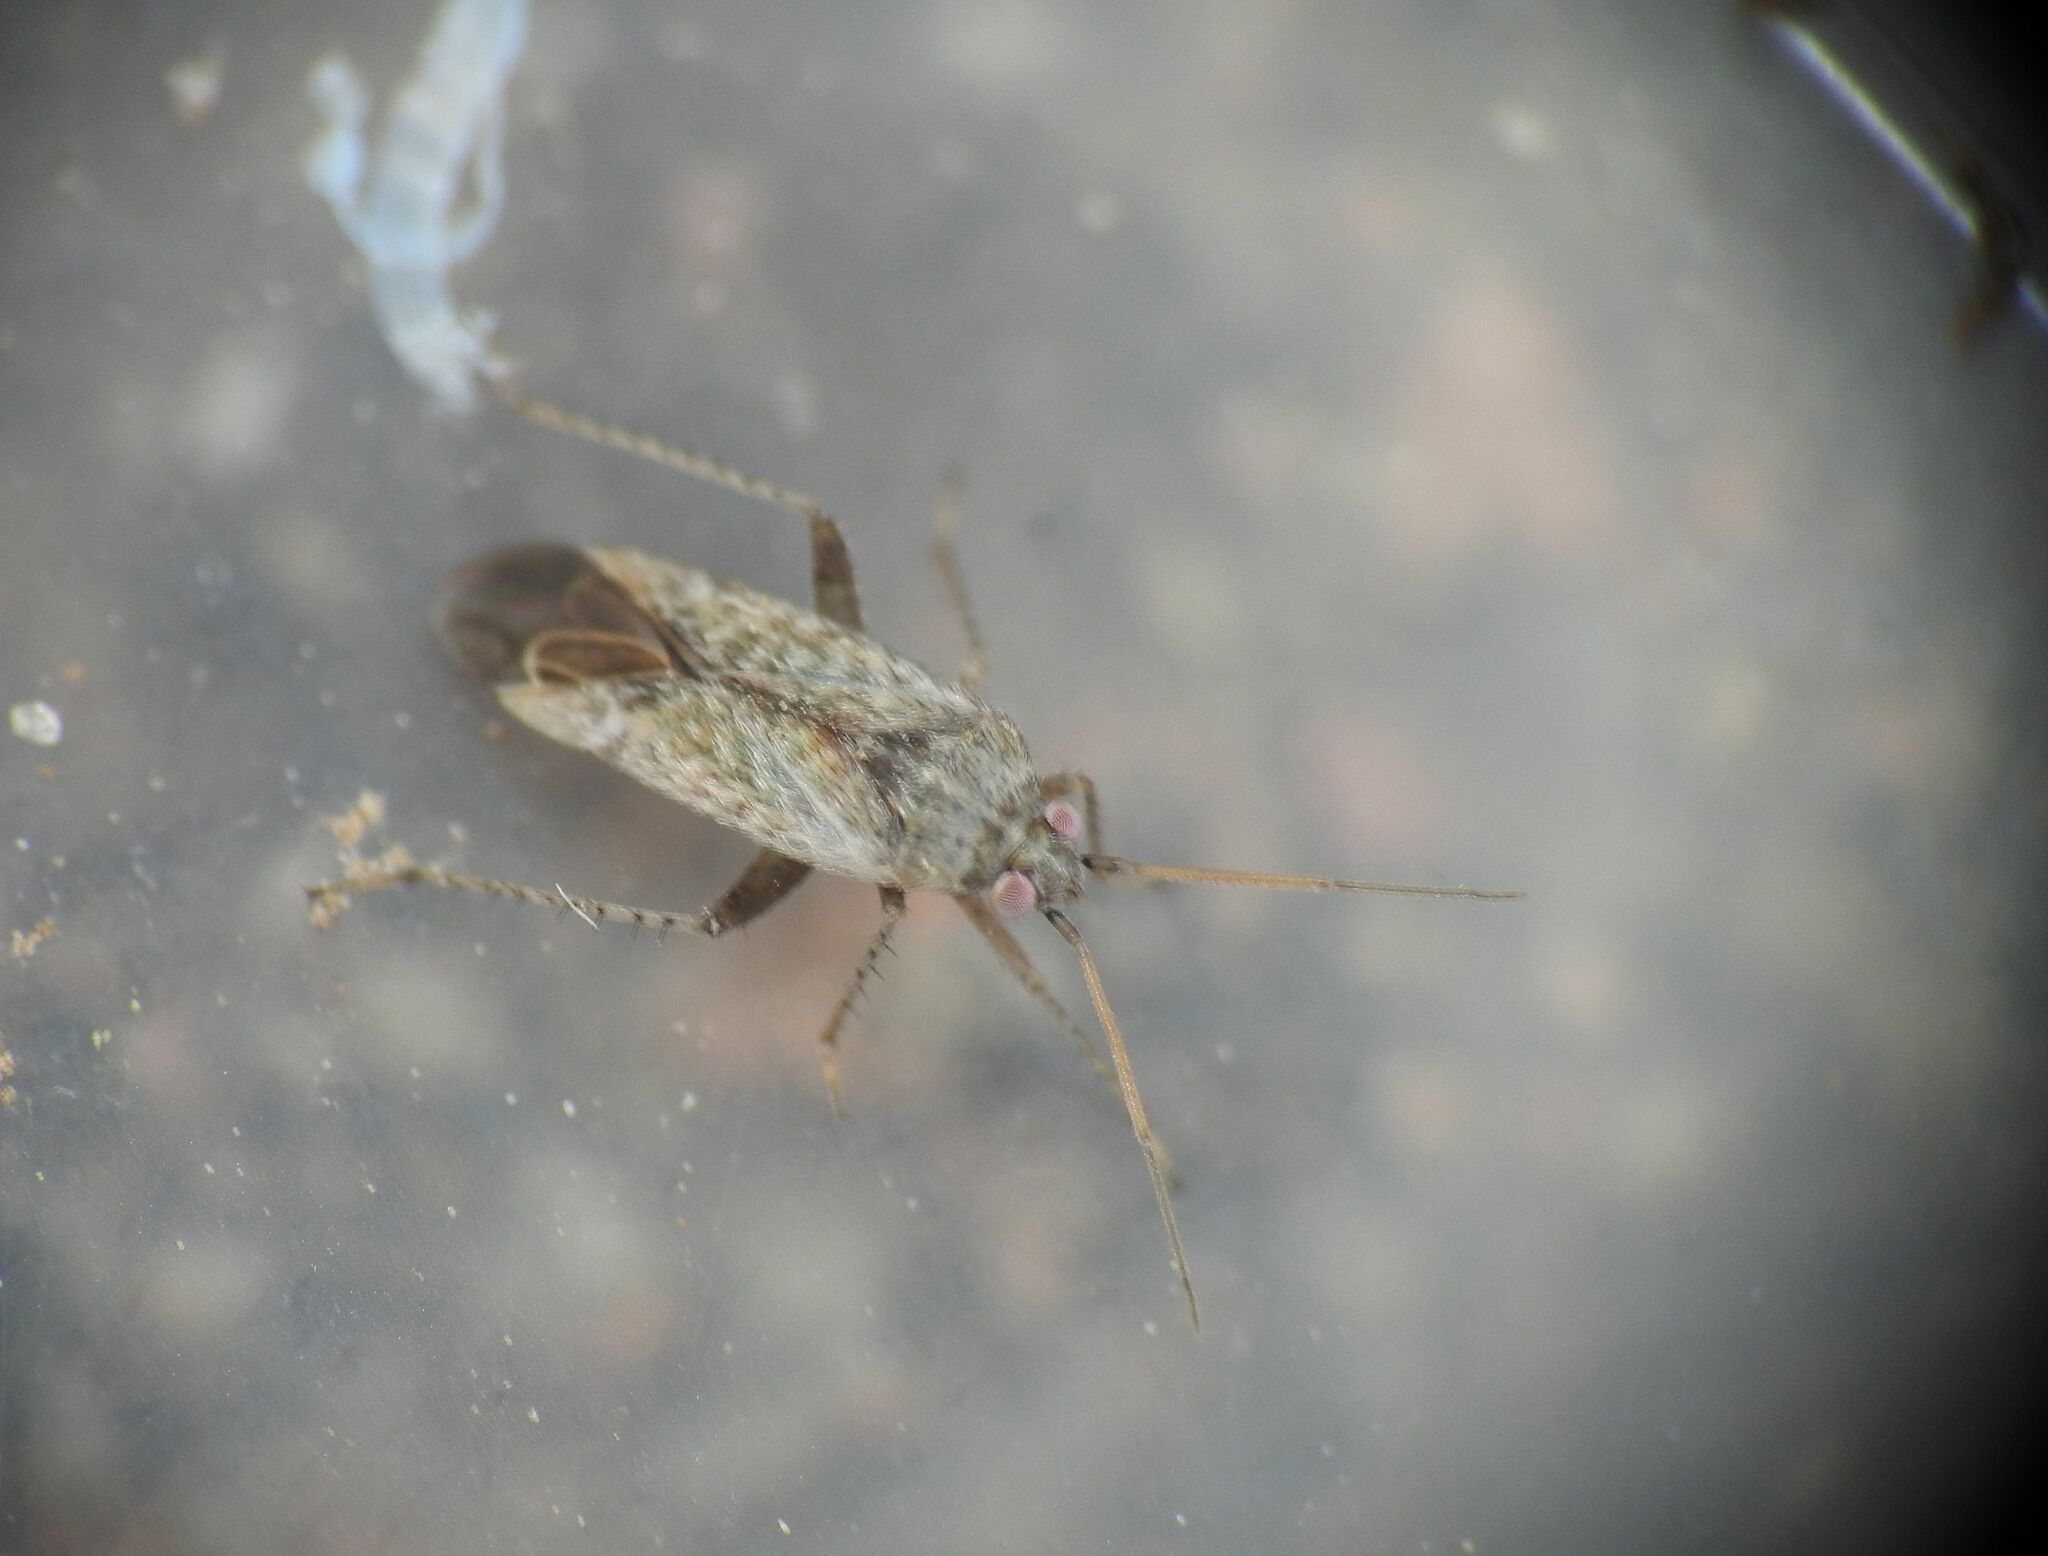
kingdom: Animalia
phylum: Arthropoda
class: Insecta
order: Hemiptera
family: Miridae
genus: Compsidolon
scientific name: Compsidolon crotchi
